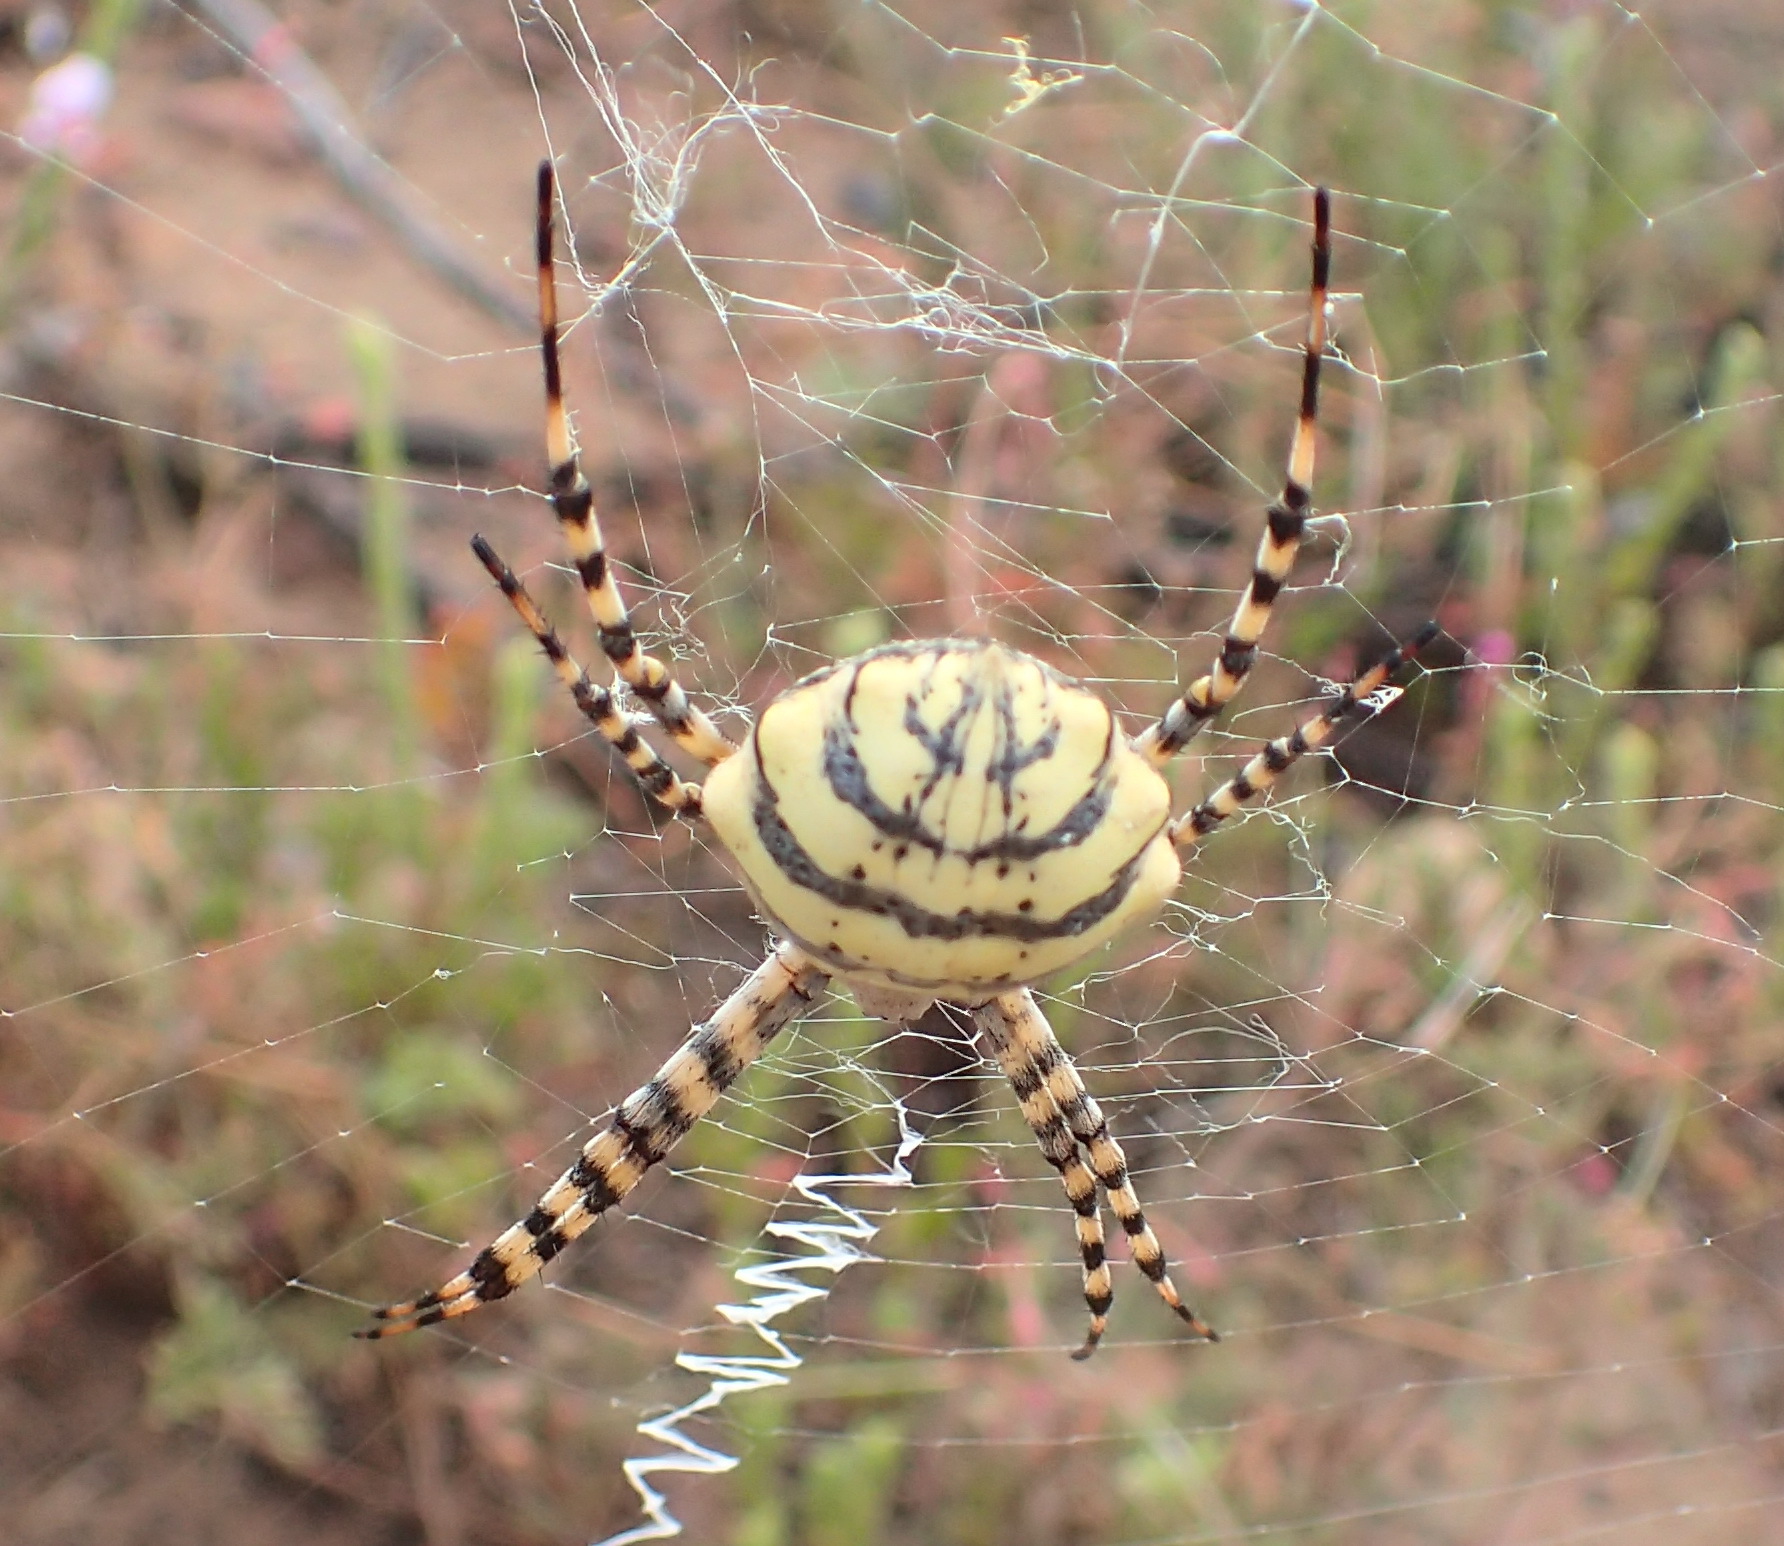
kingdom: Animalia
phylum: Arthropoda
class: Arachnida
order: Araneae
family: Araneidae
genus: Argiope
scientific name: Argiope australis
